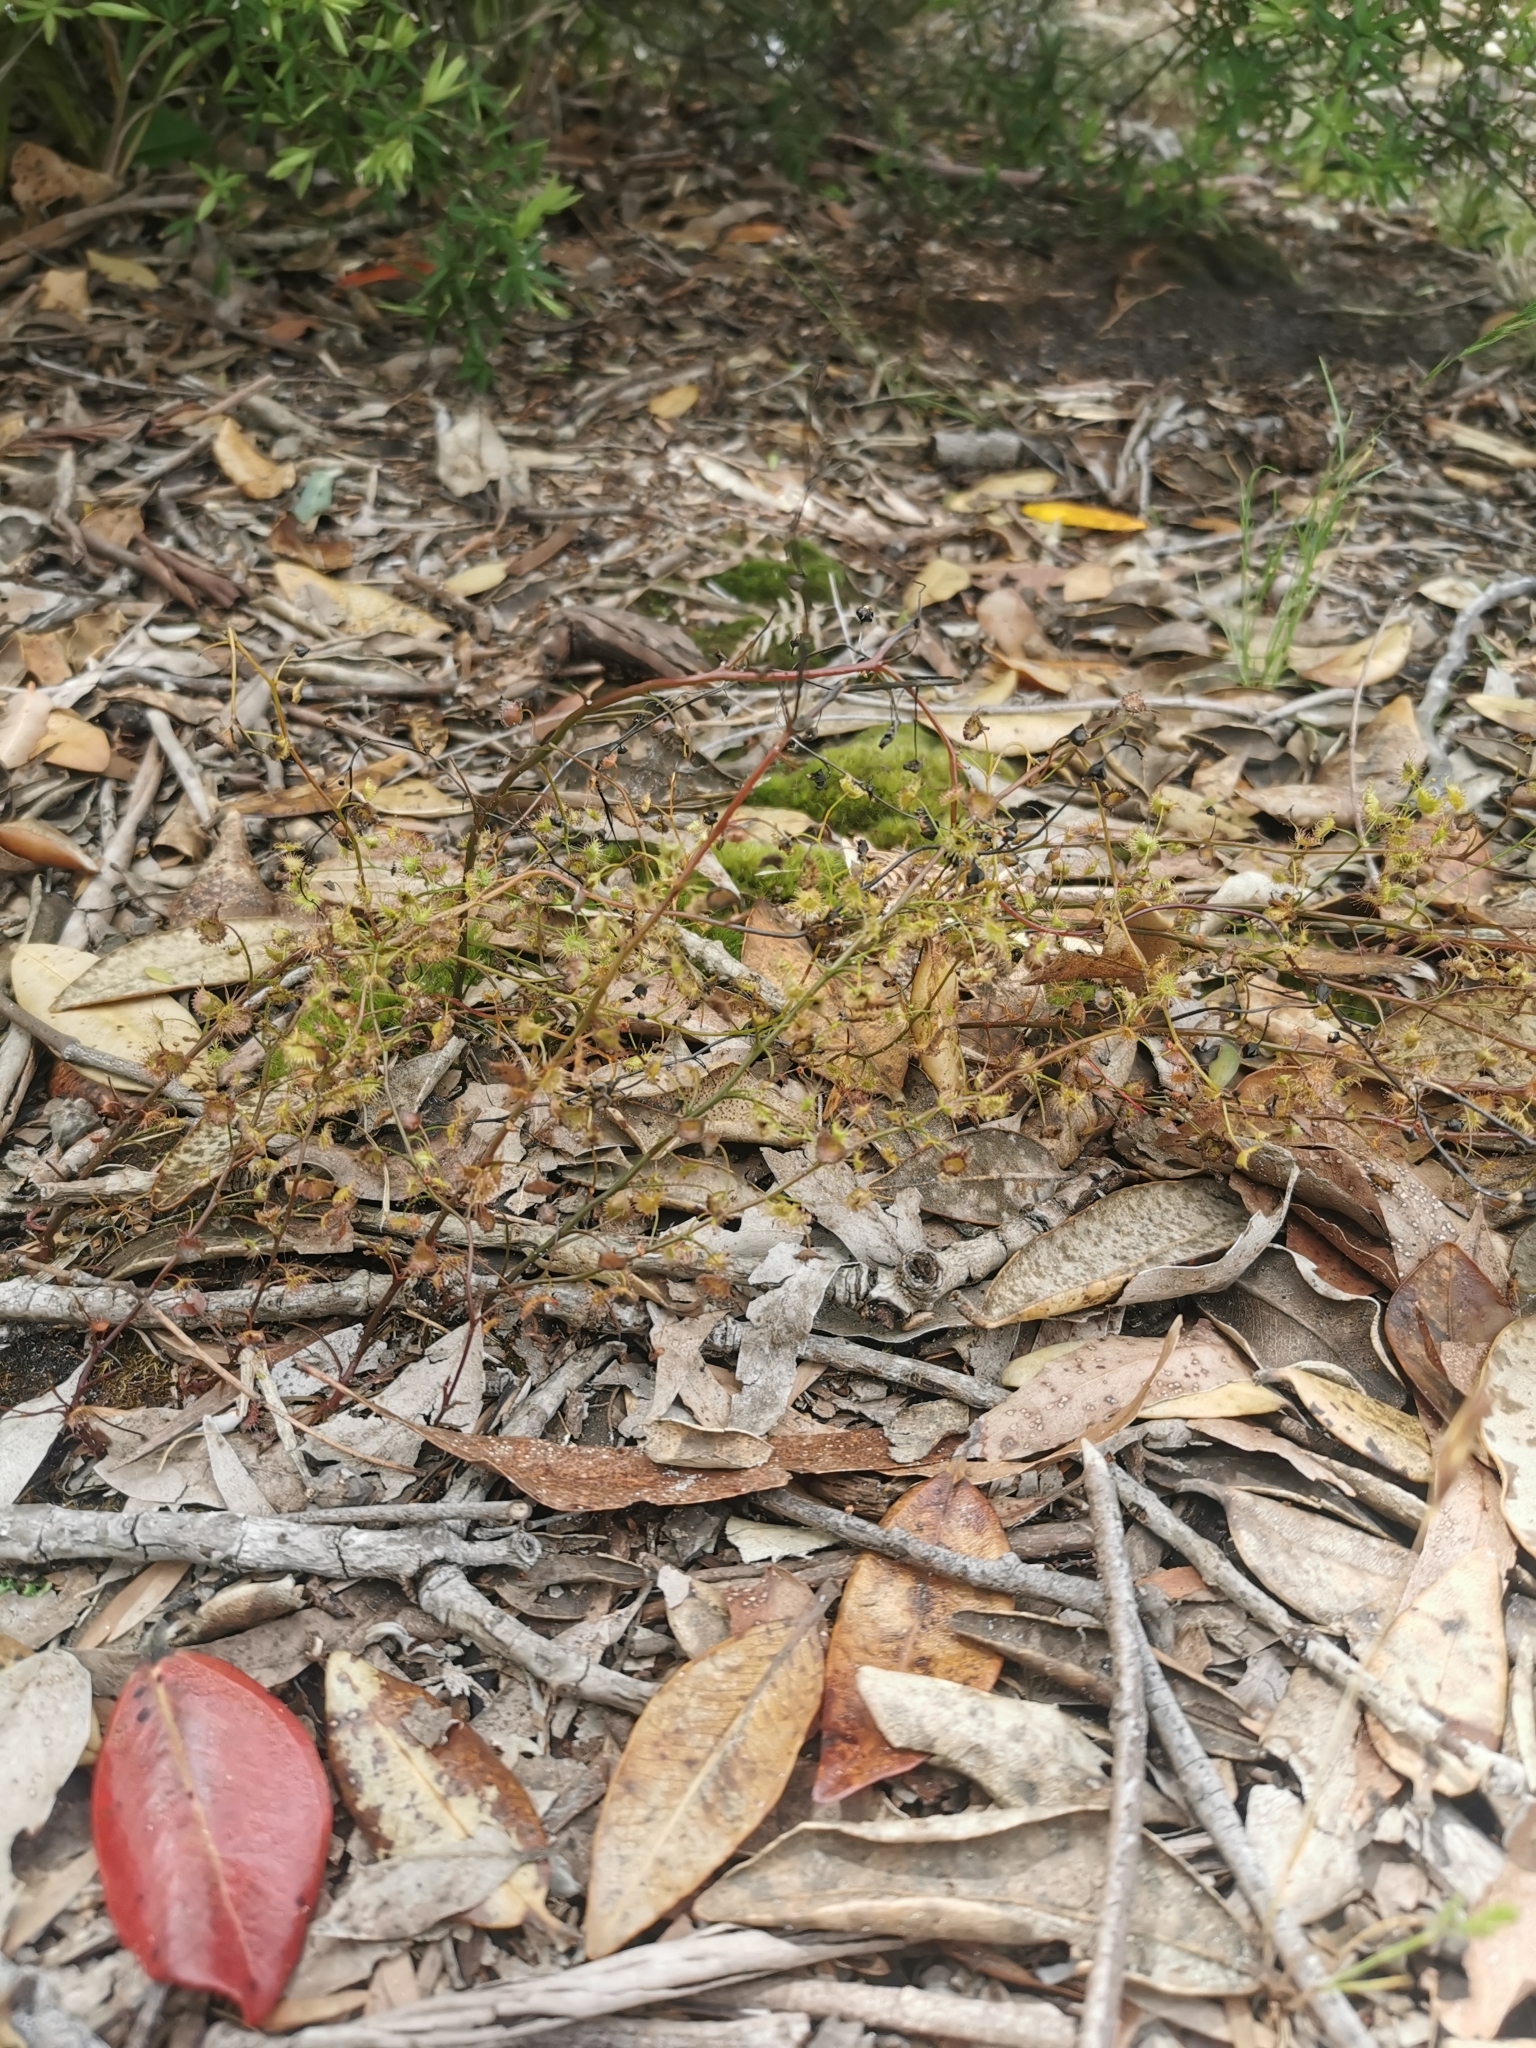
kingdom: Plantae
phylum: Tracheophyta
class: Magnoliopsida
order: Caryophyllales
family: Droseraceae
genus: Drosera
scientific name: Drosera peltata
